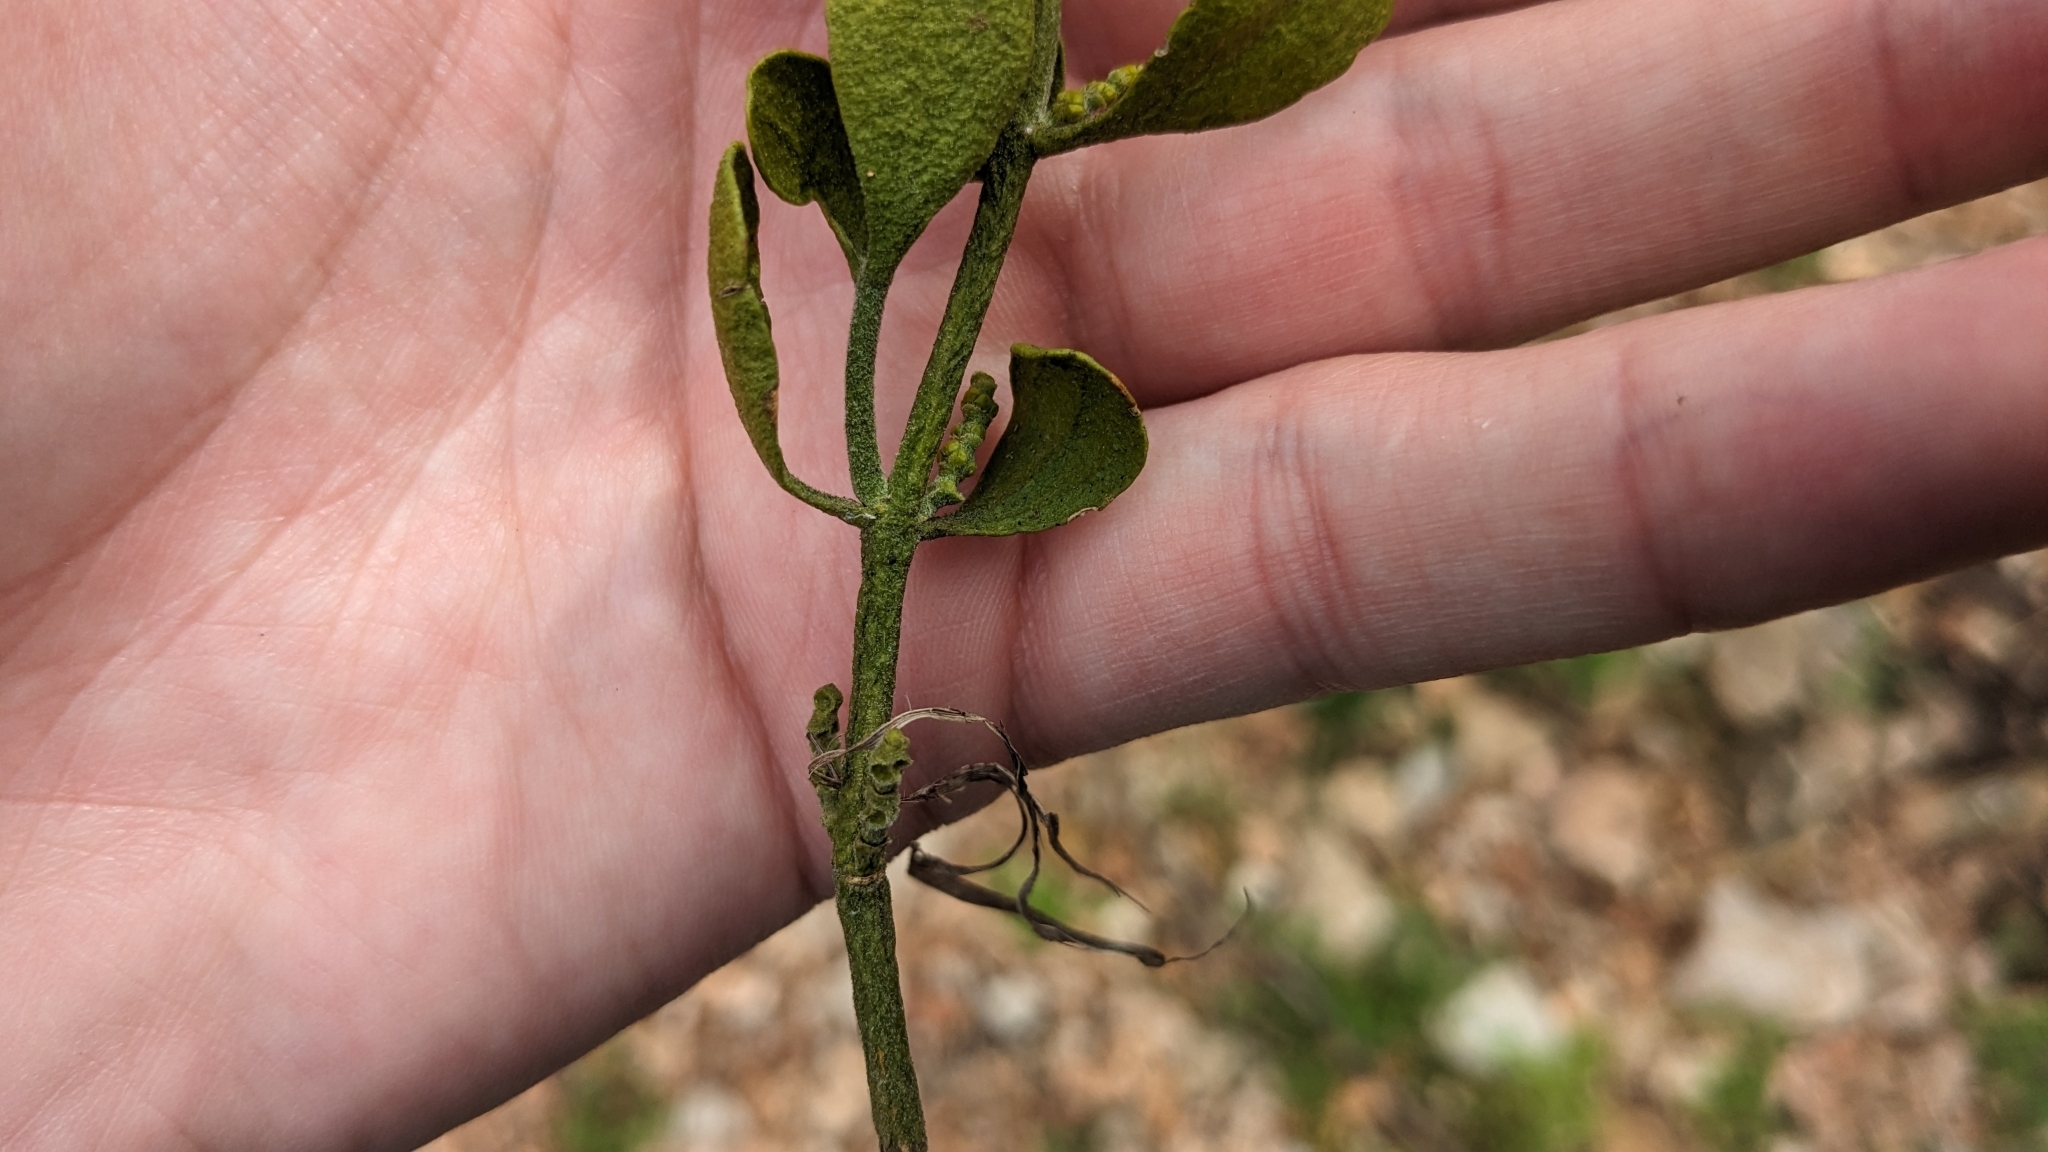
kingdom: Plantae
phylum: Tracheophyta
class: Magnoliopsida
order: Santalales
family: Viscaceae
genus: Phoradendron
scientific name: Phoradendron leucarpum
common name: Pacific mistletoe
